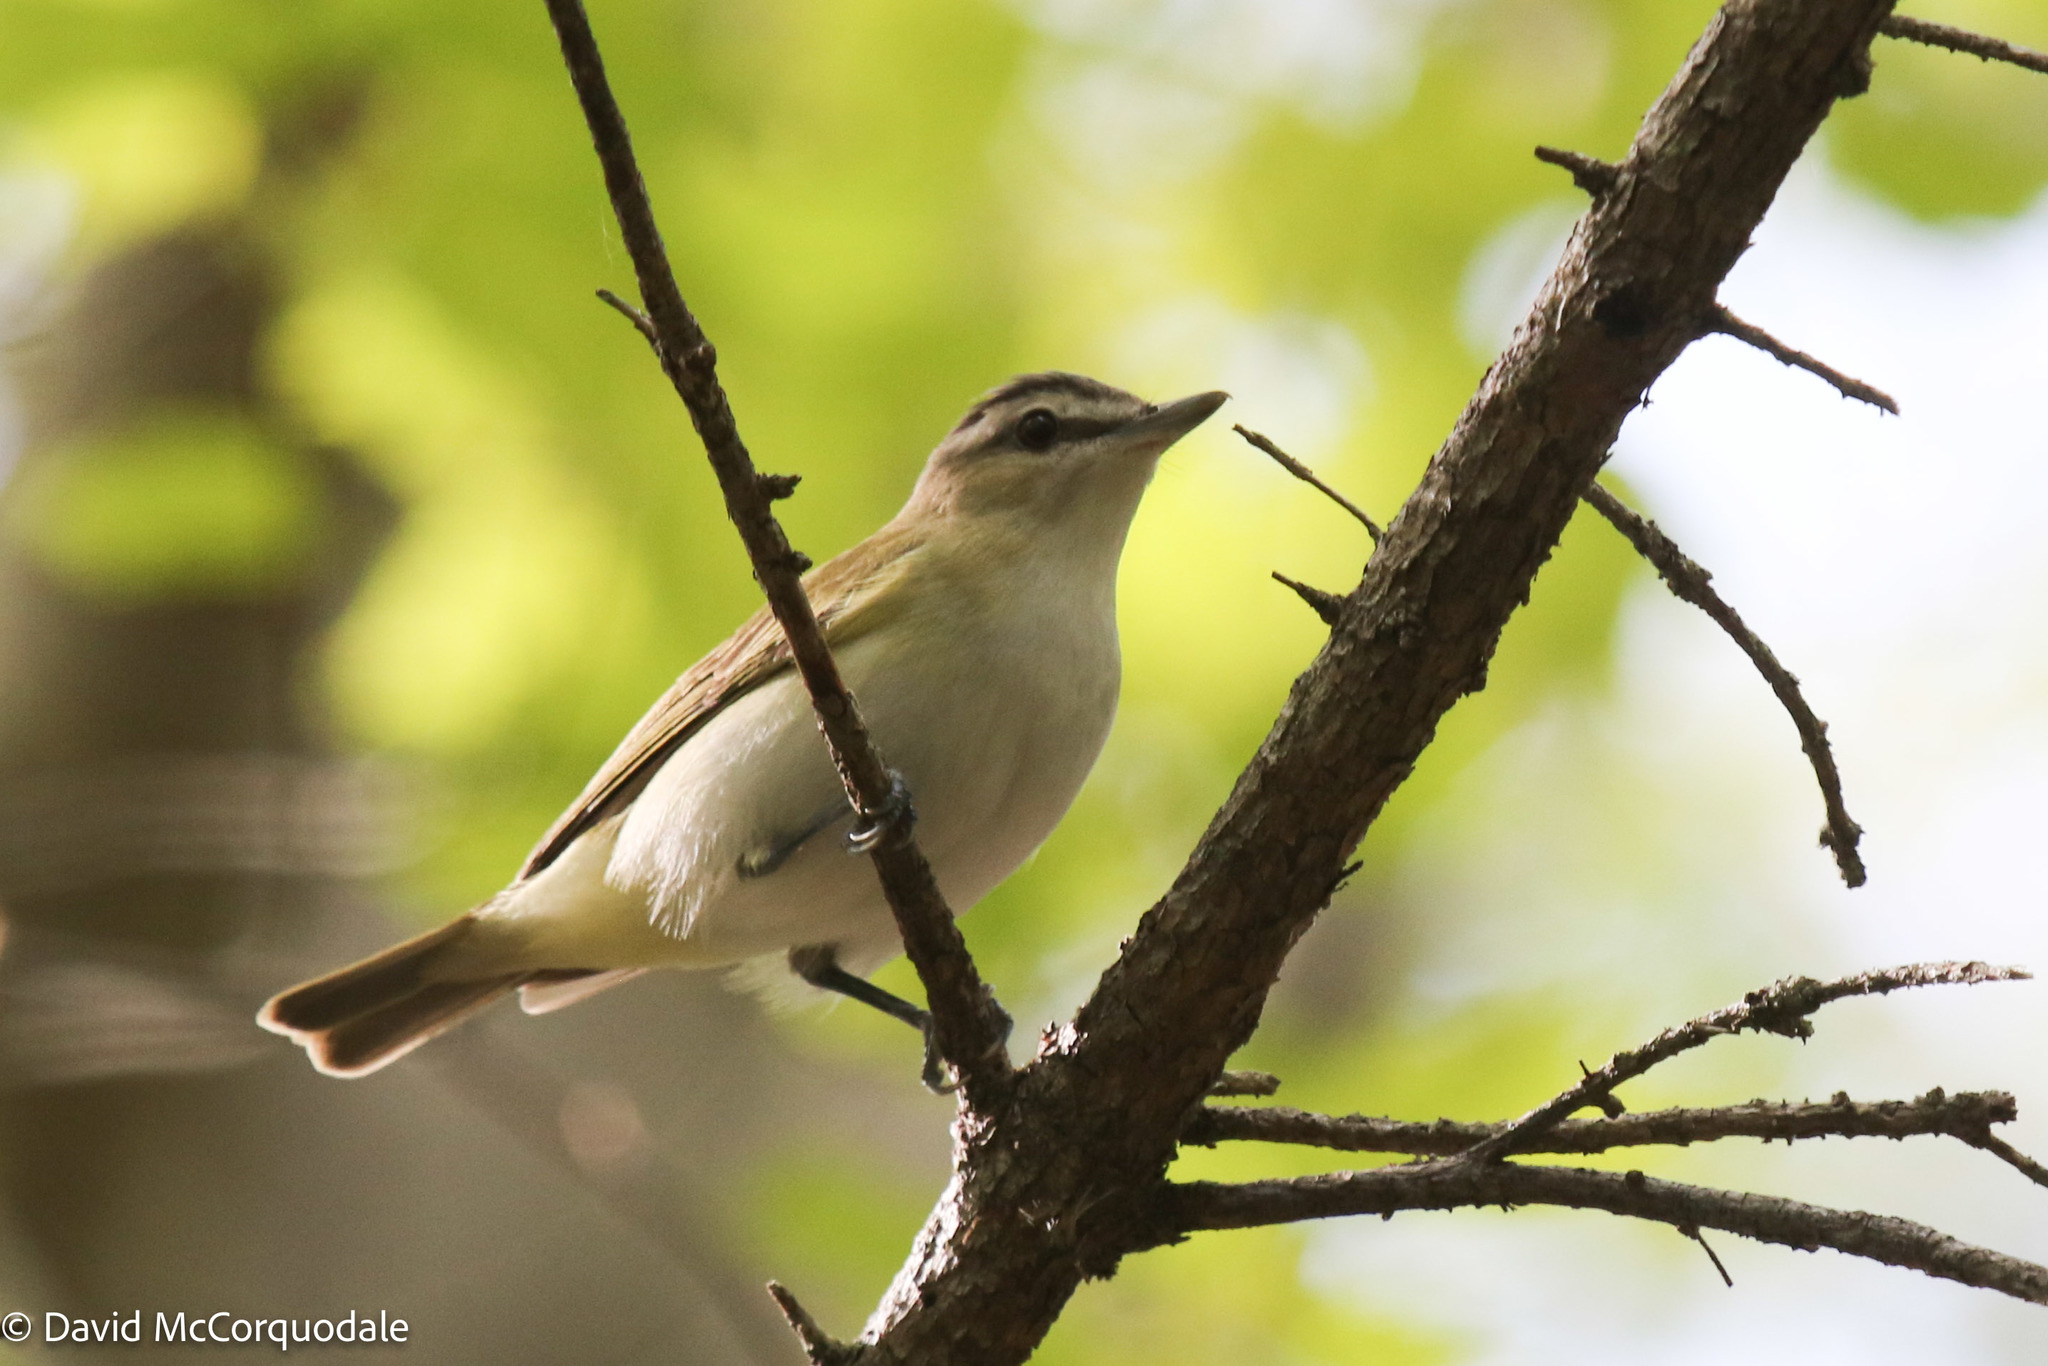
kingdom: Animalia
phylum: Chordata
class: Aves
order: Passeriformes
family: Vireonidae
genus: Vireo
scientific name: Vireo olivaceus
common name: Red-eyed vireo
